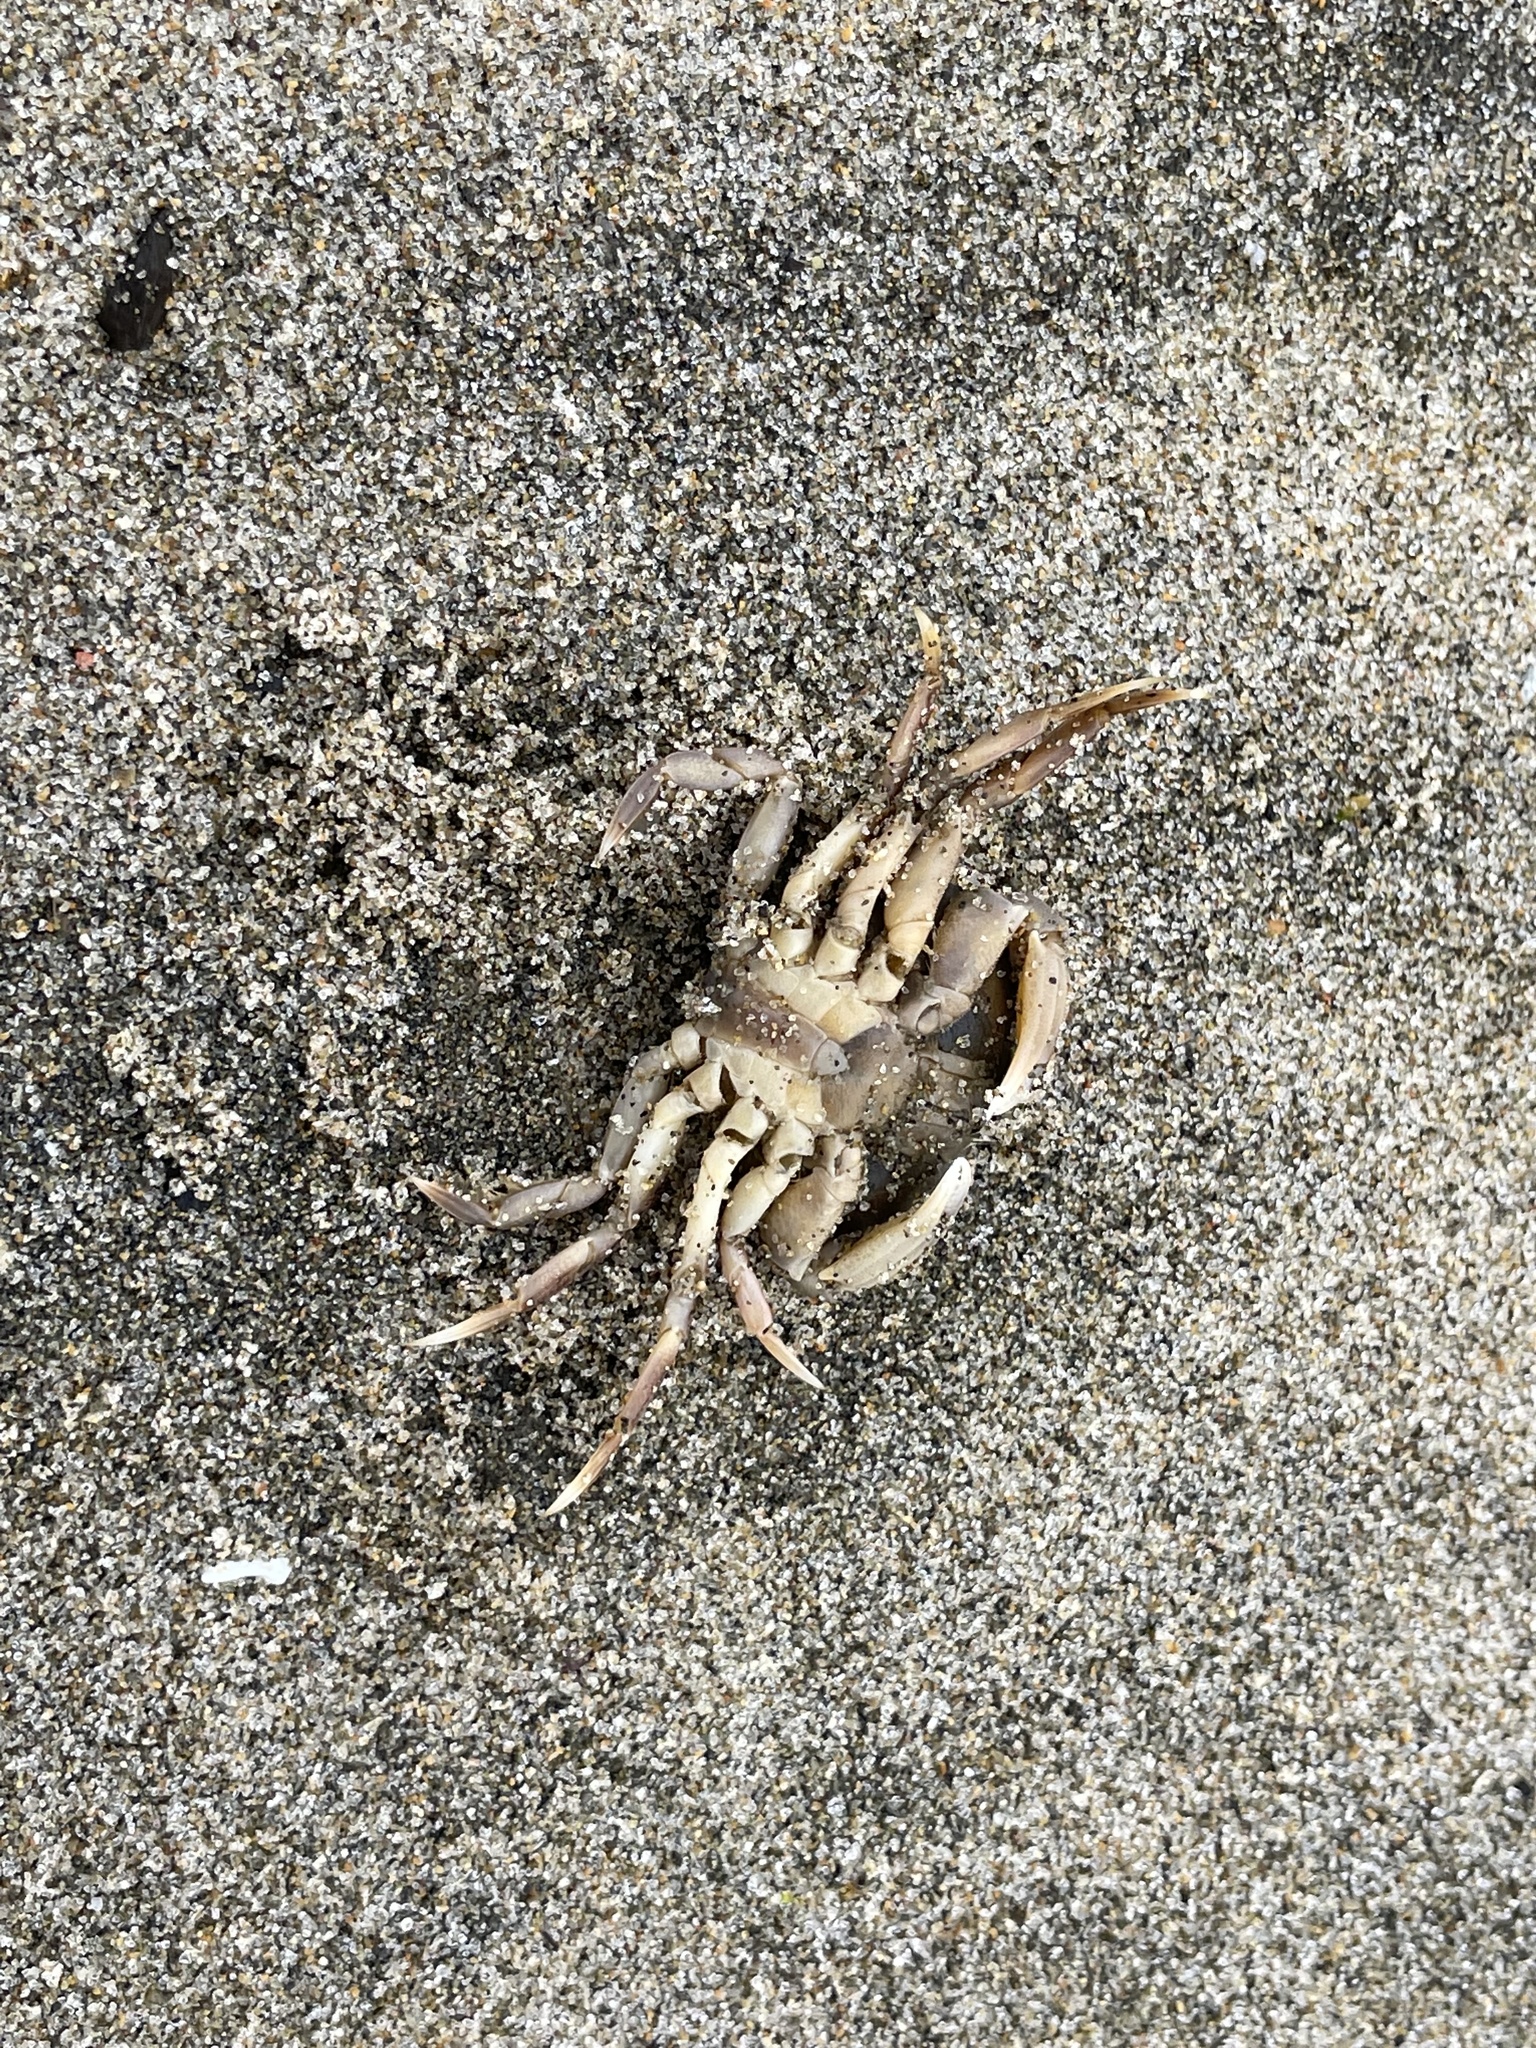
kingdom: Animalia
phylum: Arthropoda
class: Malacostraca
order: Decapoda
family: Cancridae
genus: Metacarcinus
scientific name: Metacarcinus magister
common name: Californian crab
